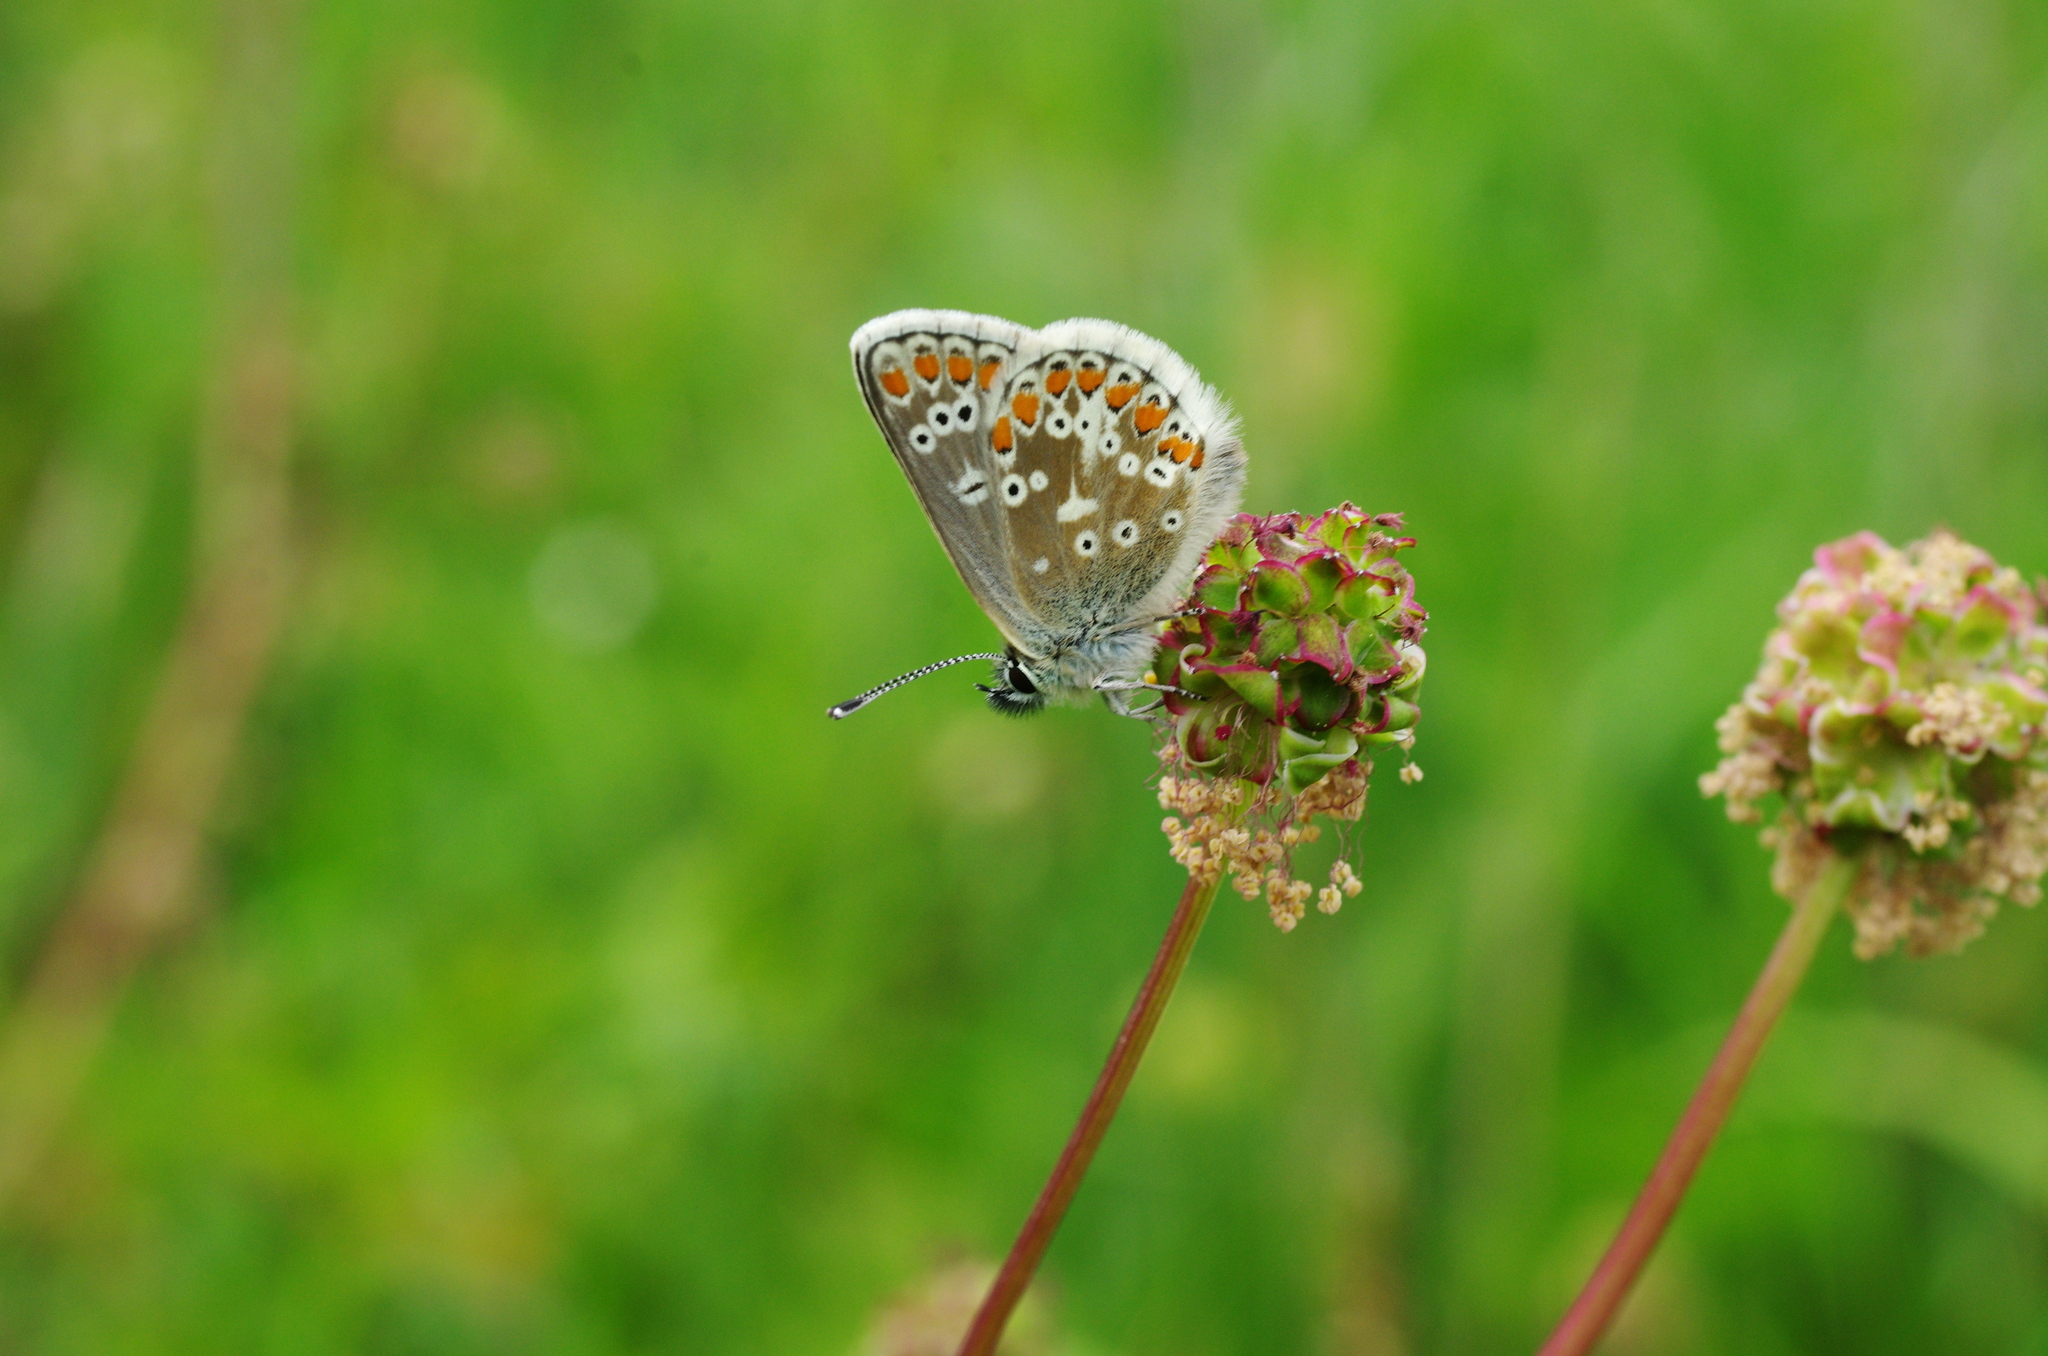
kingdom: Animalia
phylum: Arthropoda
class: Insecta
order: Lepidoptera
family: Lycaenidae
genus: Aricia
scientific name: Aricia artaxerxes
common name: Northern brown argus
